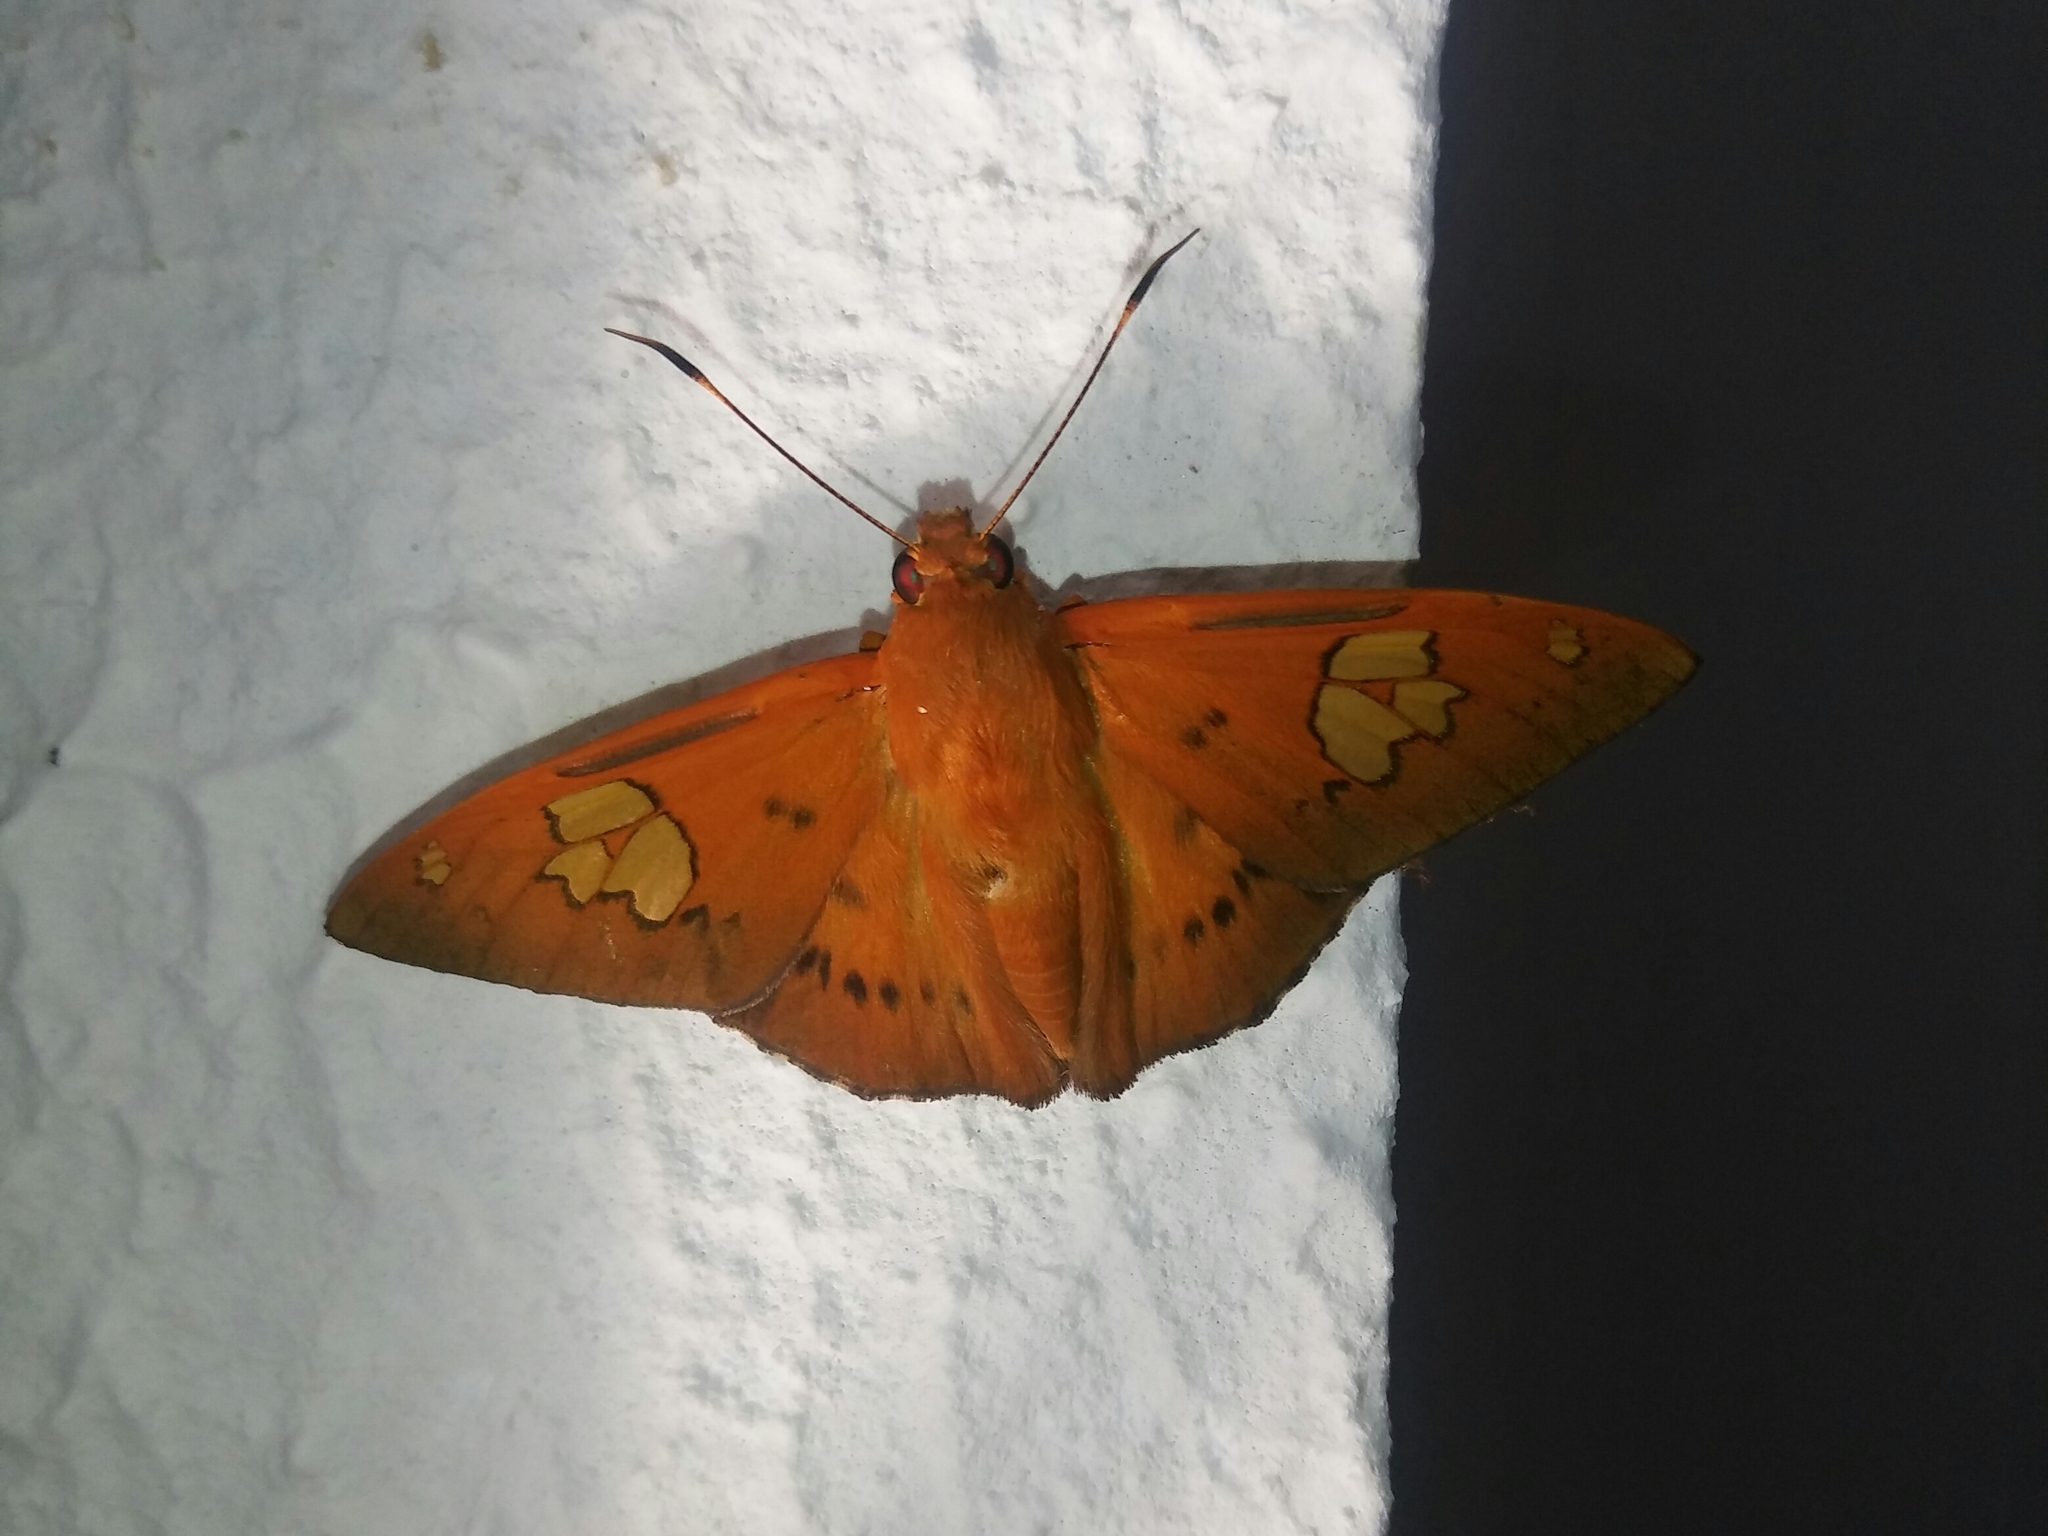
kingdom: Animalia
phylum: Arthropoda
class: Insecta
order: Lepidoptera
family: Hesperiidae
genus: Dyscophellus
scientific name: Dyscophellus euribates
